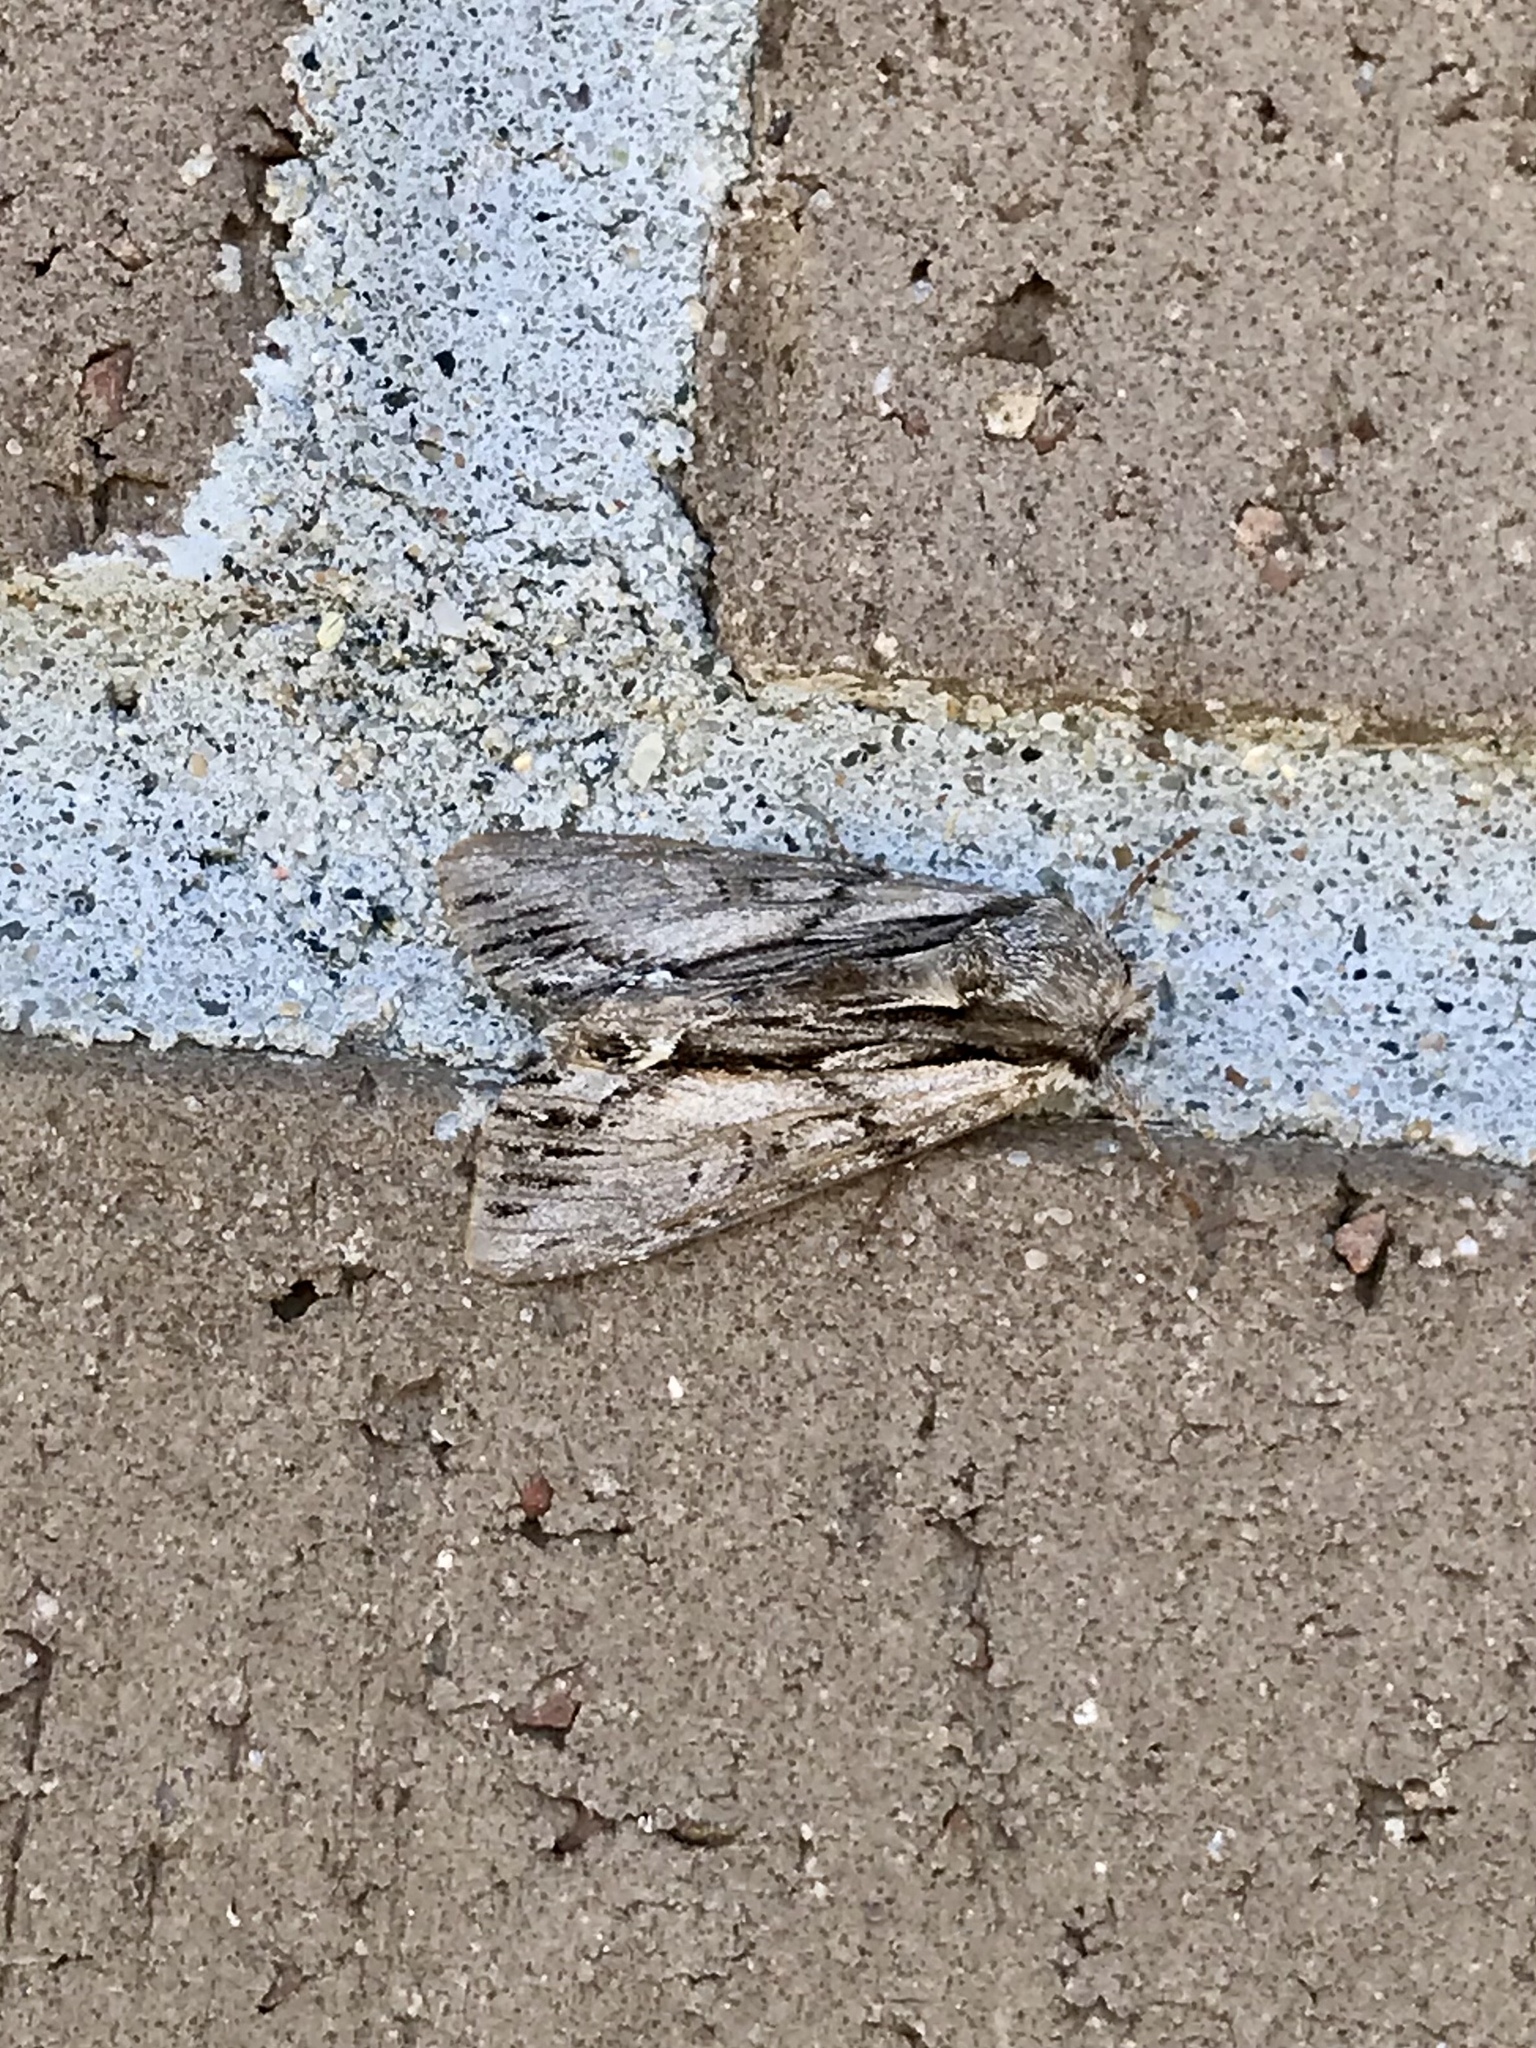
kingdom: Animalia
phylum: Arthropoda
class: Insecta
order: Lepidoptera
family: Noctuidae
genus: Hyppa
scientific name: Hyppa xylinoides
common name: Common hyppa moth
